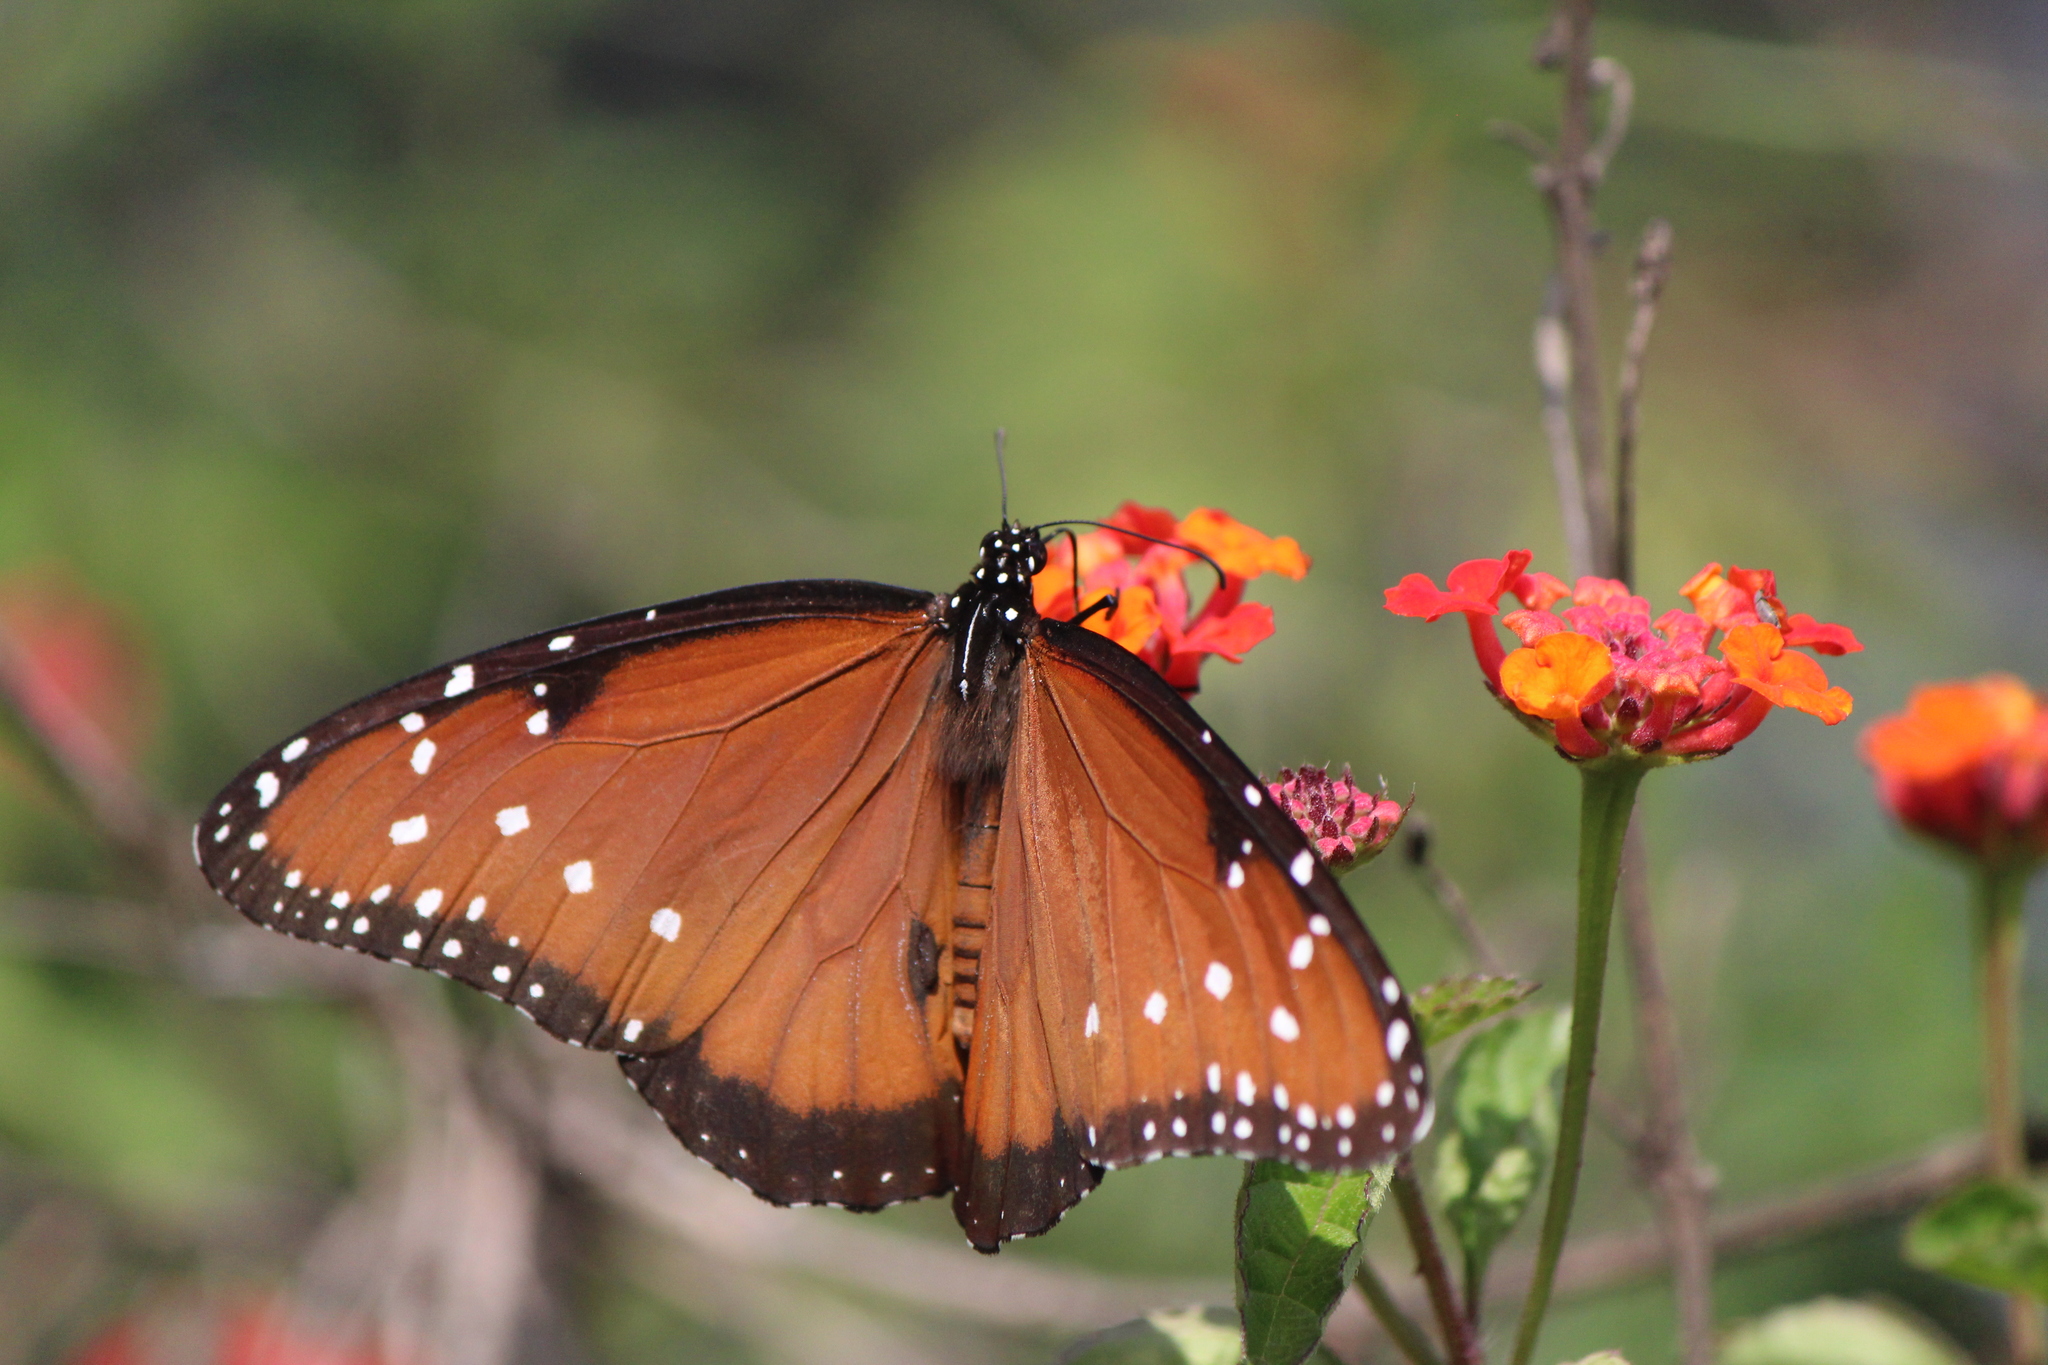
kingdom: Animalia
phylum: Arthropoda
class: Insecta
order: Lepidoptera
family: Nymphalidae
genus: Danaus
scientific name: Danaus gilippus
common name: Queen
